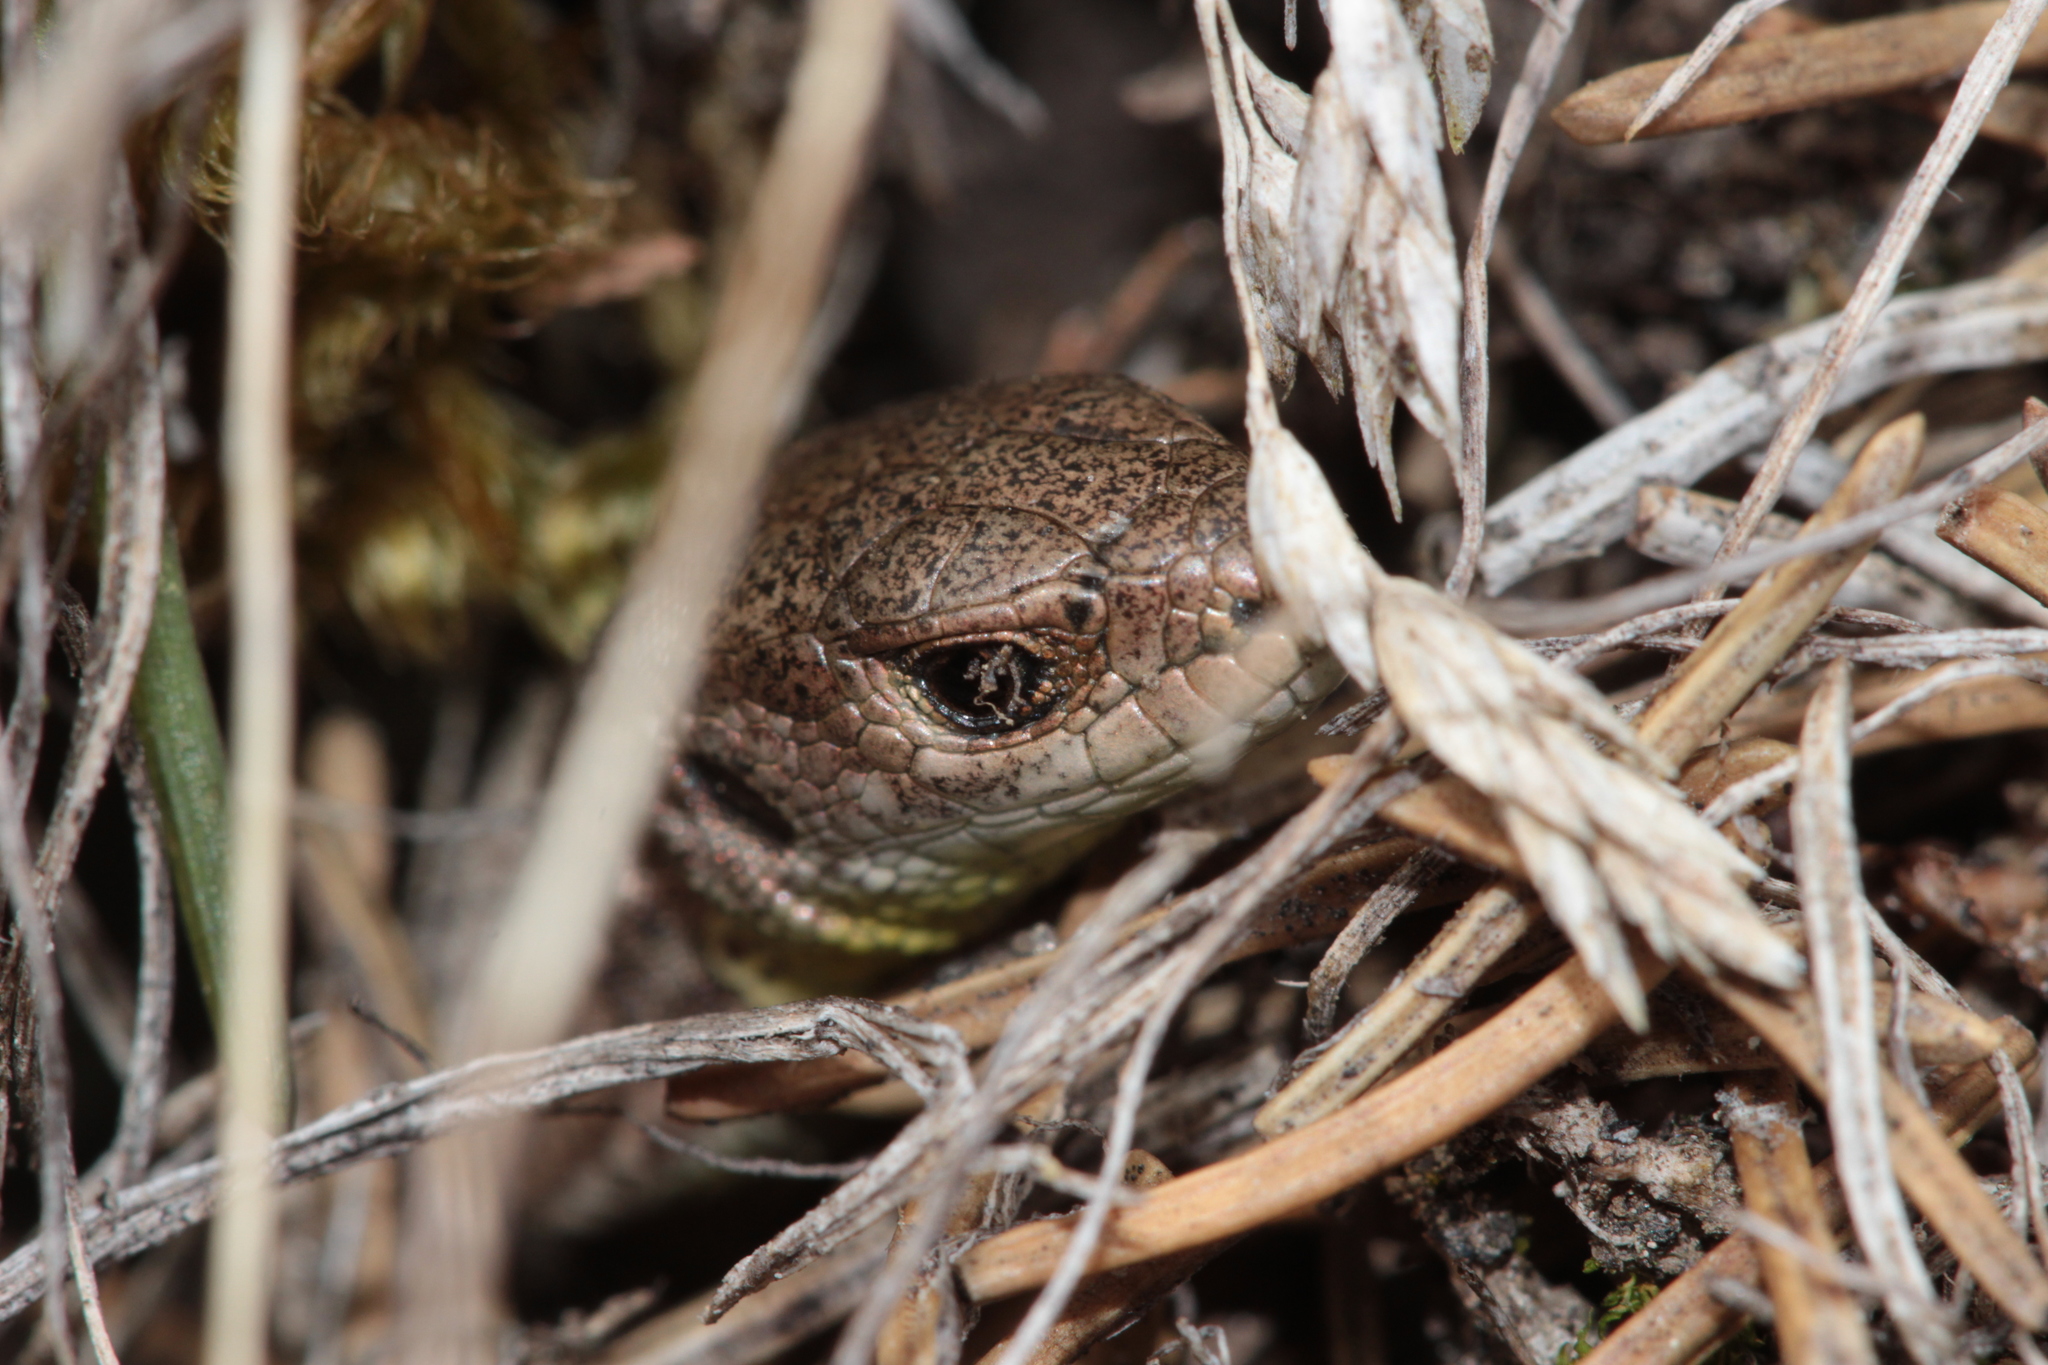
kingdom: Animalia
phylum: Chordata
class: Squamata
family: Lacertidae
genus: Lacerta
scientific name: Lacerta agilis
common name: Sand lizard
